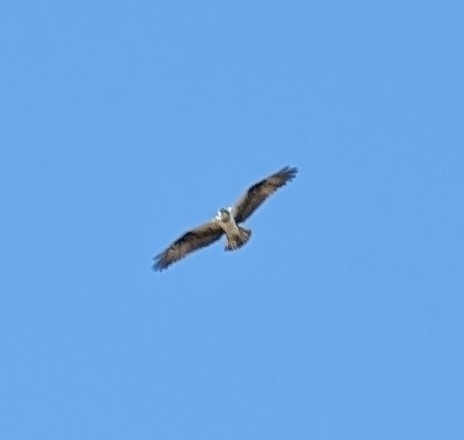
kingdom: Animalia
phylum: Chordata
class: Aves
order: Accipitriformes
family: Pandionidae
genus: Pandion
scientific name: Pandion haliaetus
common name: Osprey
